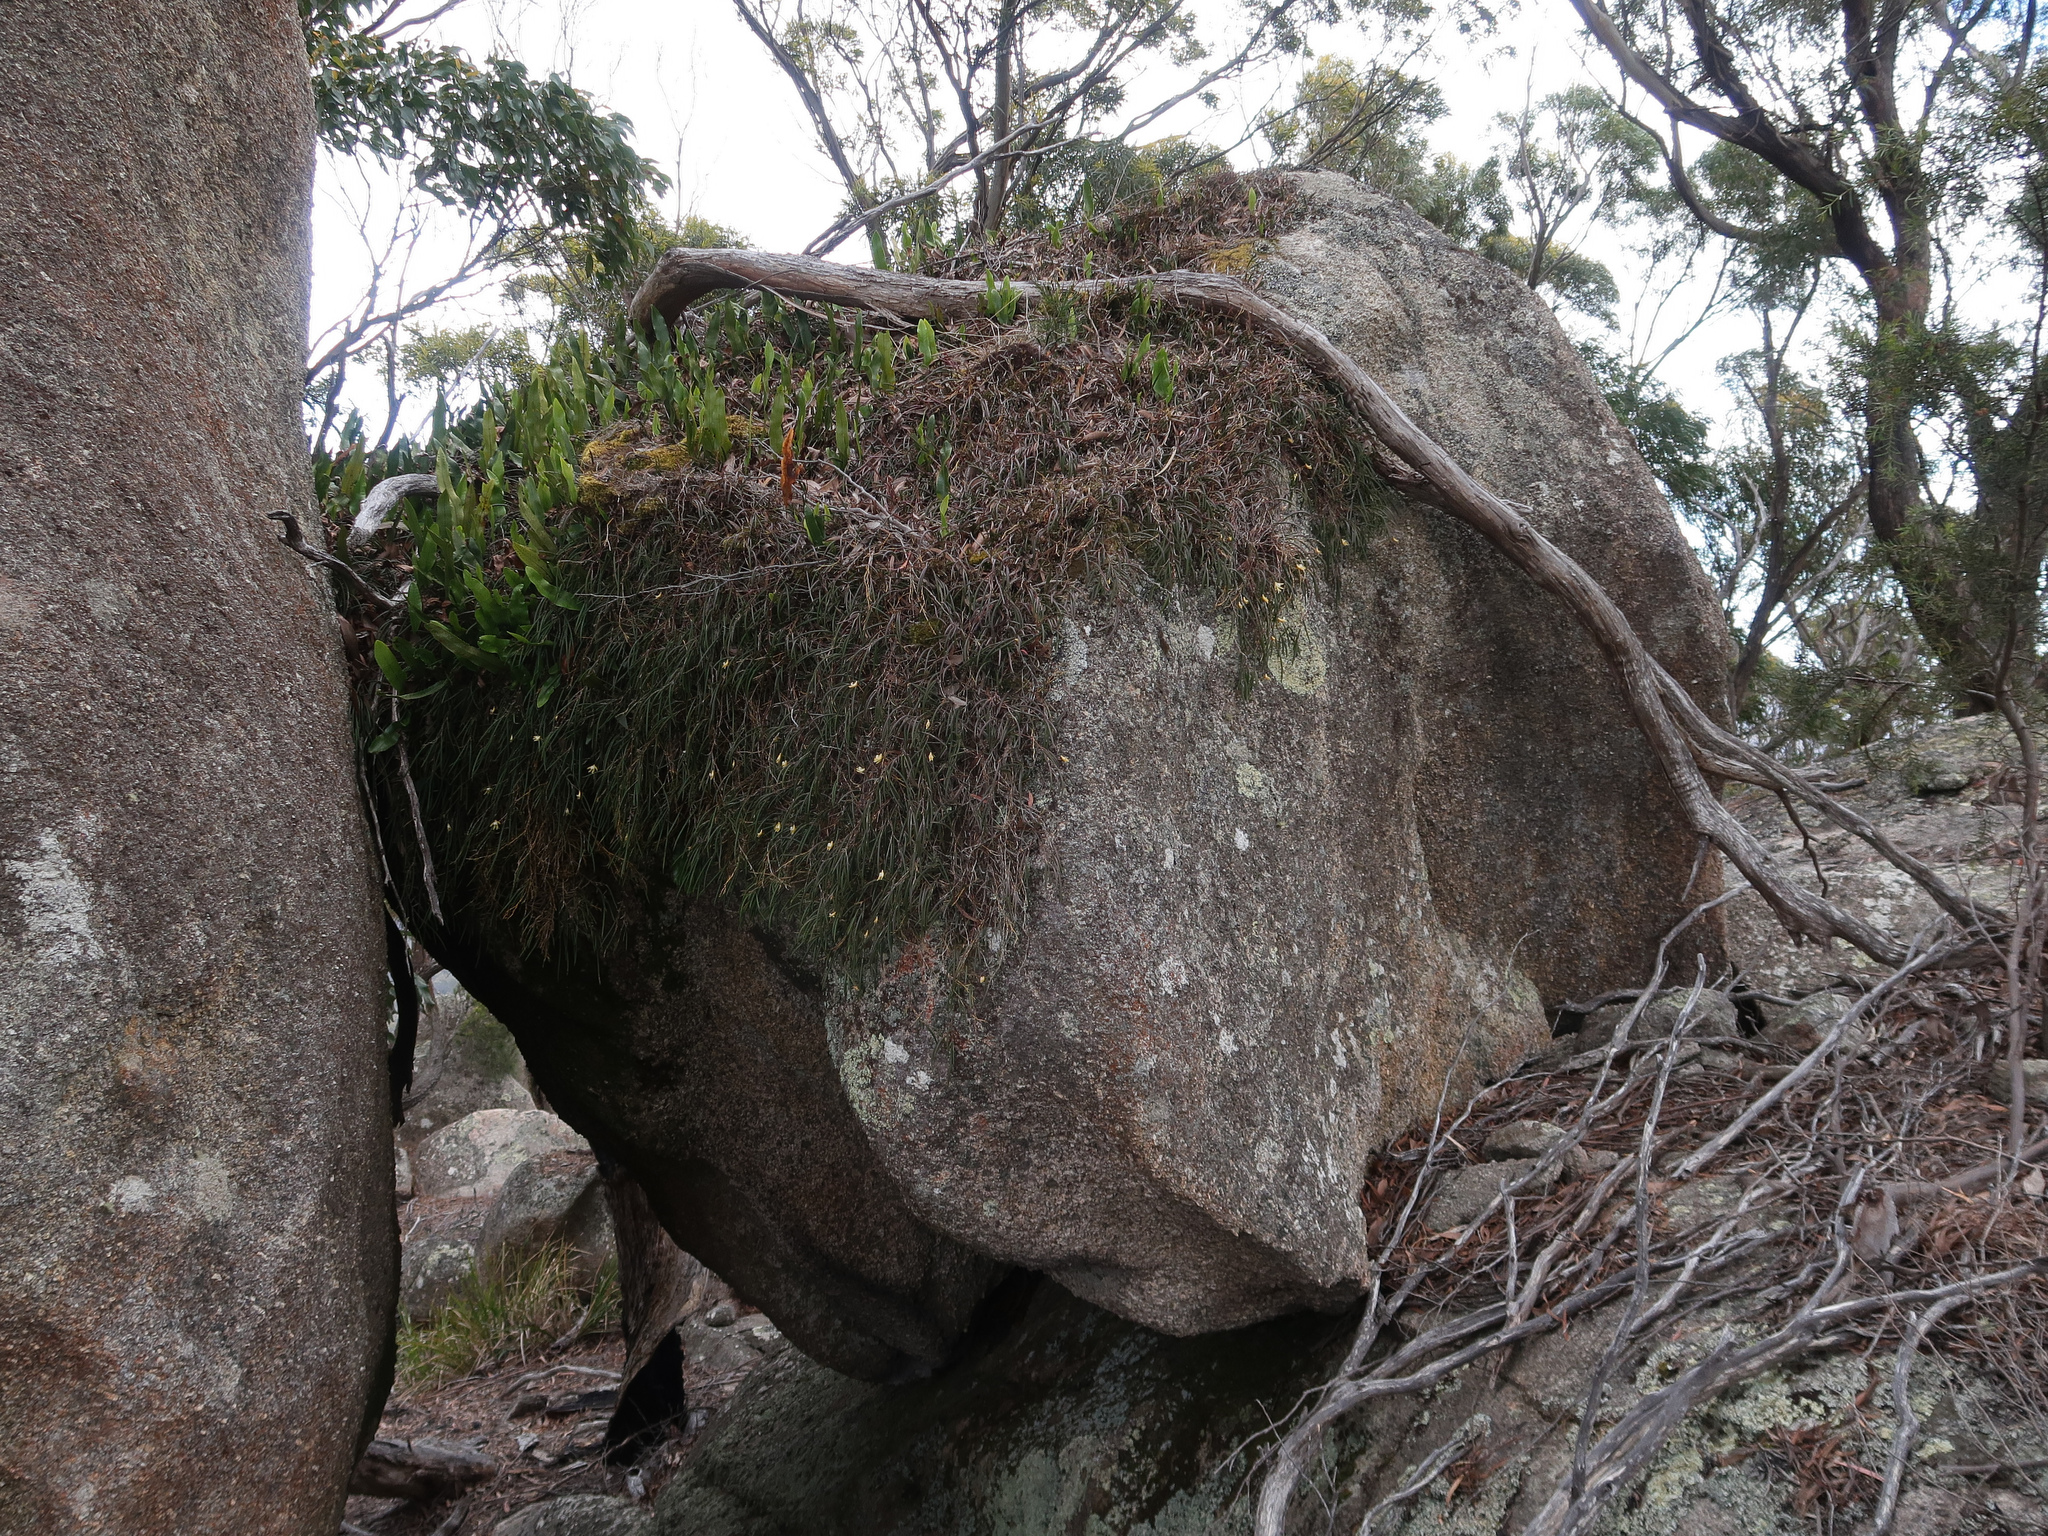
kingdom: Plantae
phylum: Tracheophyta
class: Liliopsida
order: Asparagales
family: Orchidaceae
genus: Dendrobium
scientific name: Dendrobium striolatum
